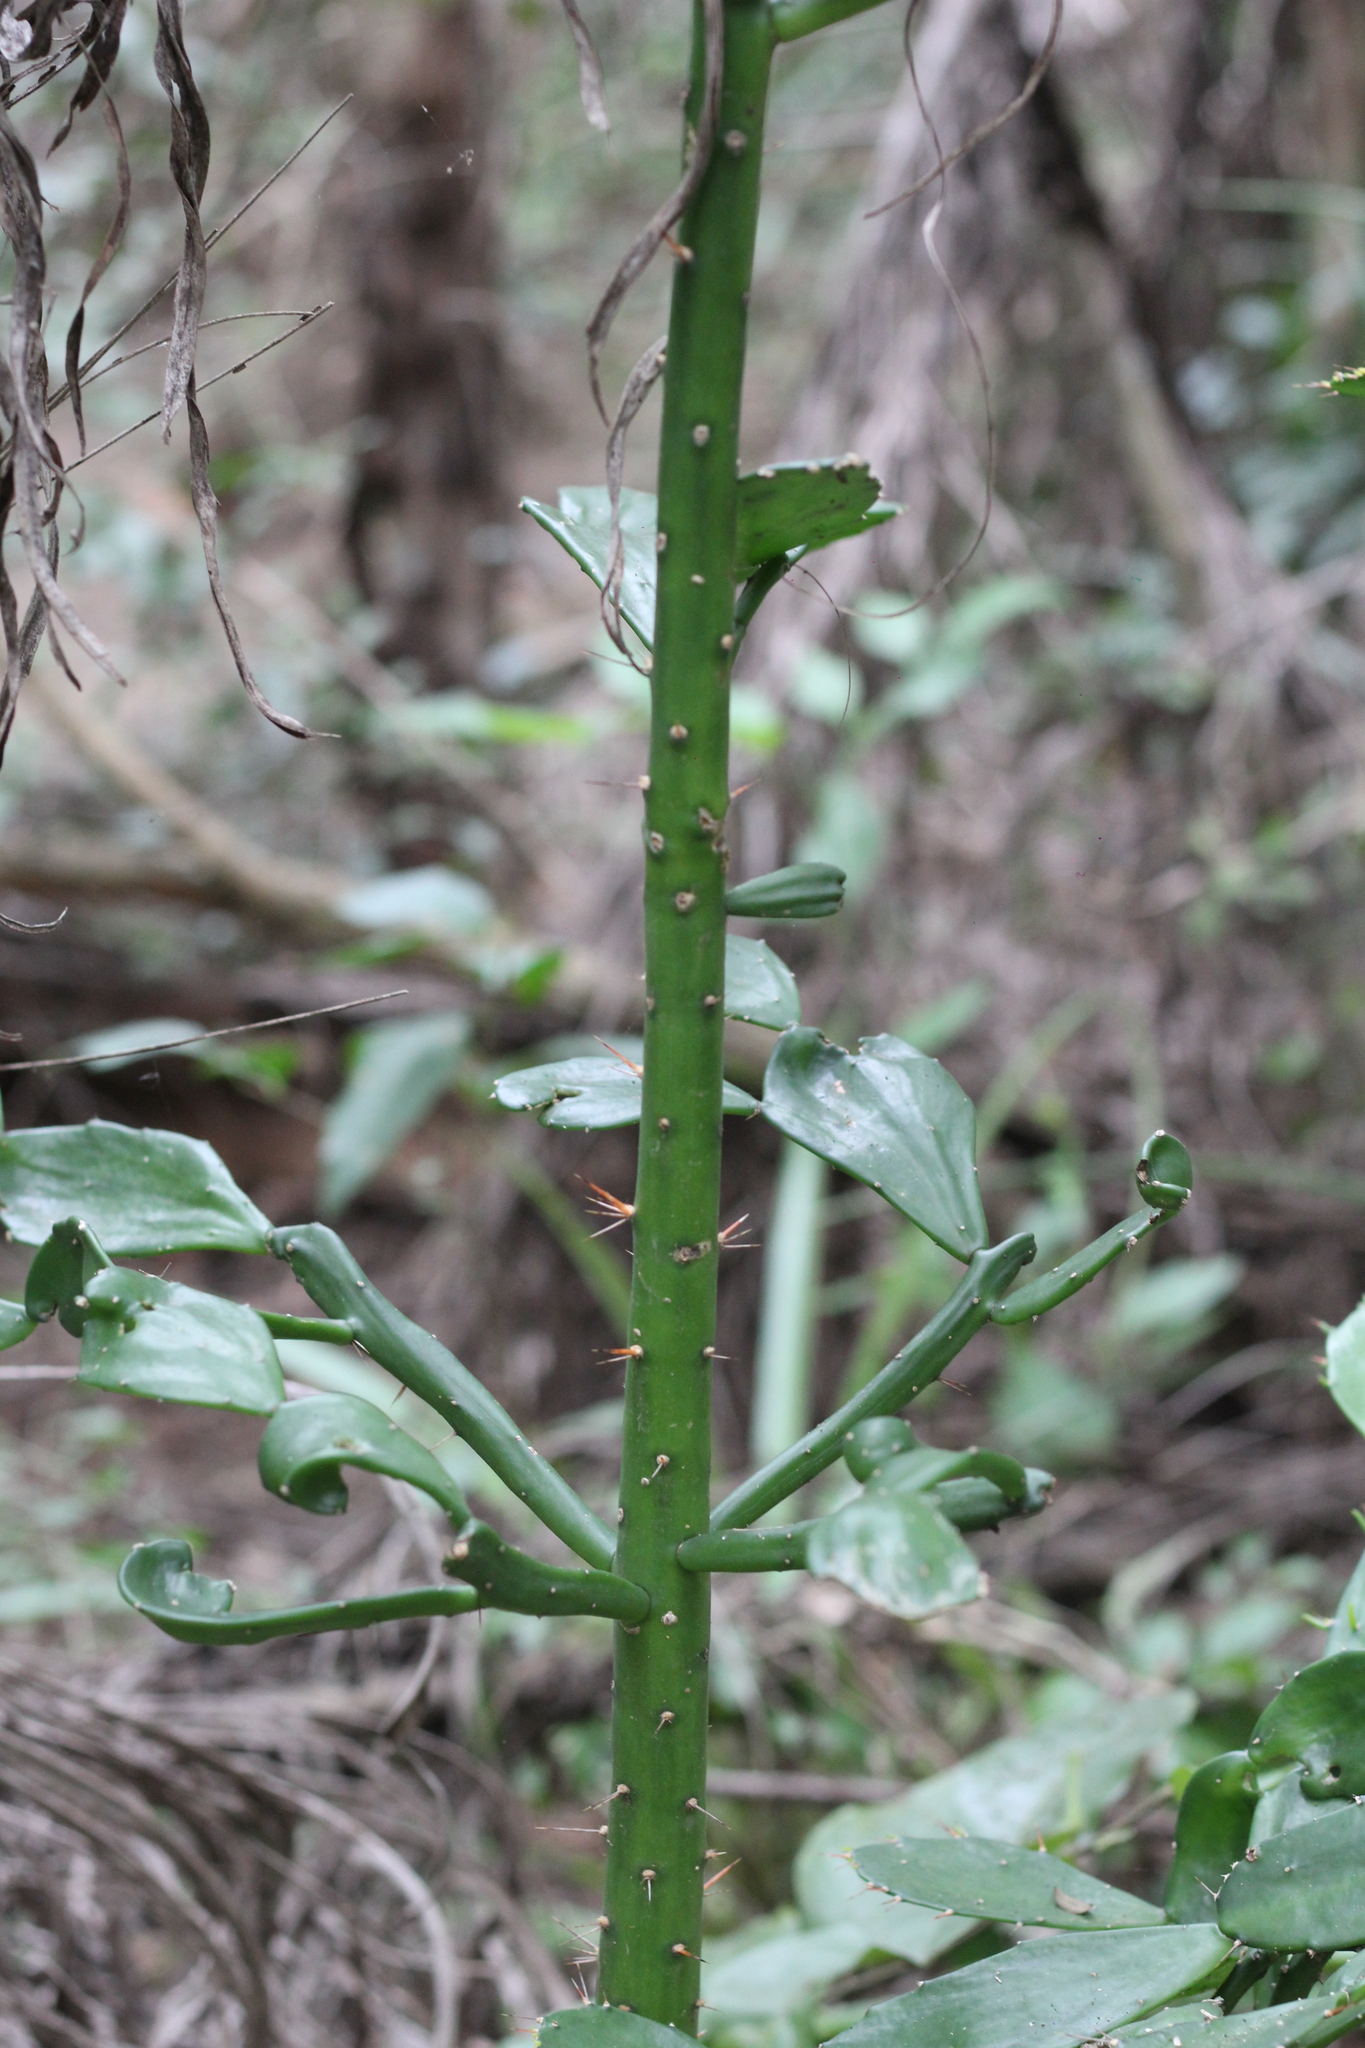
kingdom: Plantae
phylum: Tracheophyta
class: Magnoliopsida
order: Caryophyllales
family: Cactaceae
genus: Brasiliopuntia
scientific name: Brasiliopuntia brasiliensis
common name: Brazilian pricklypear
